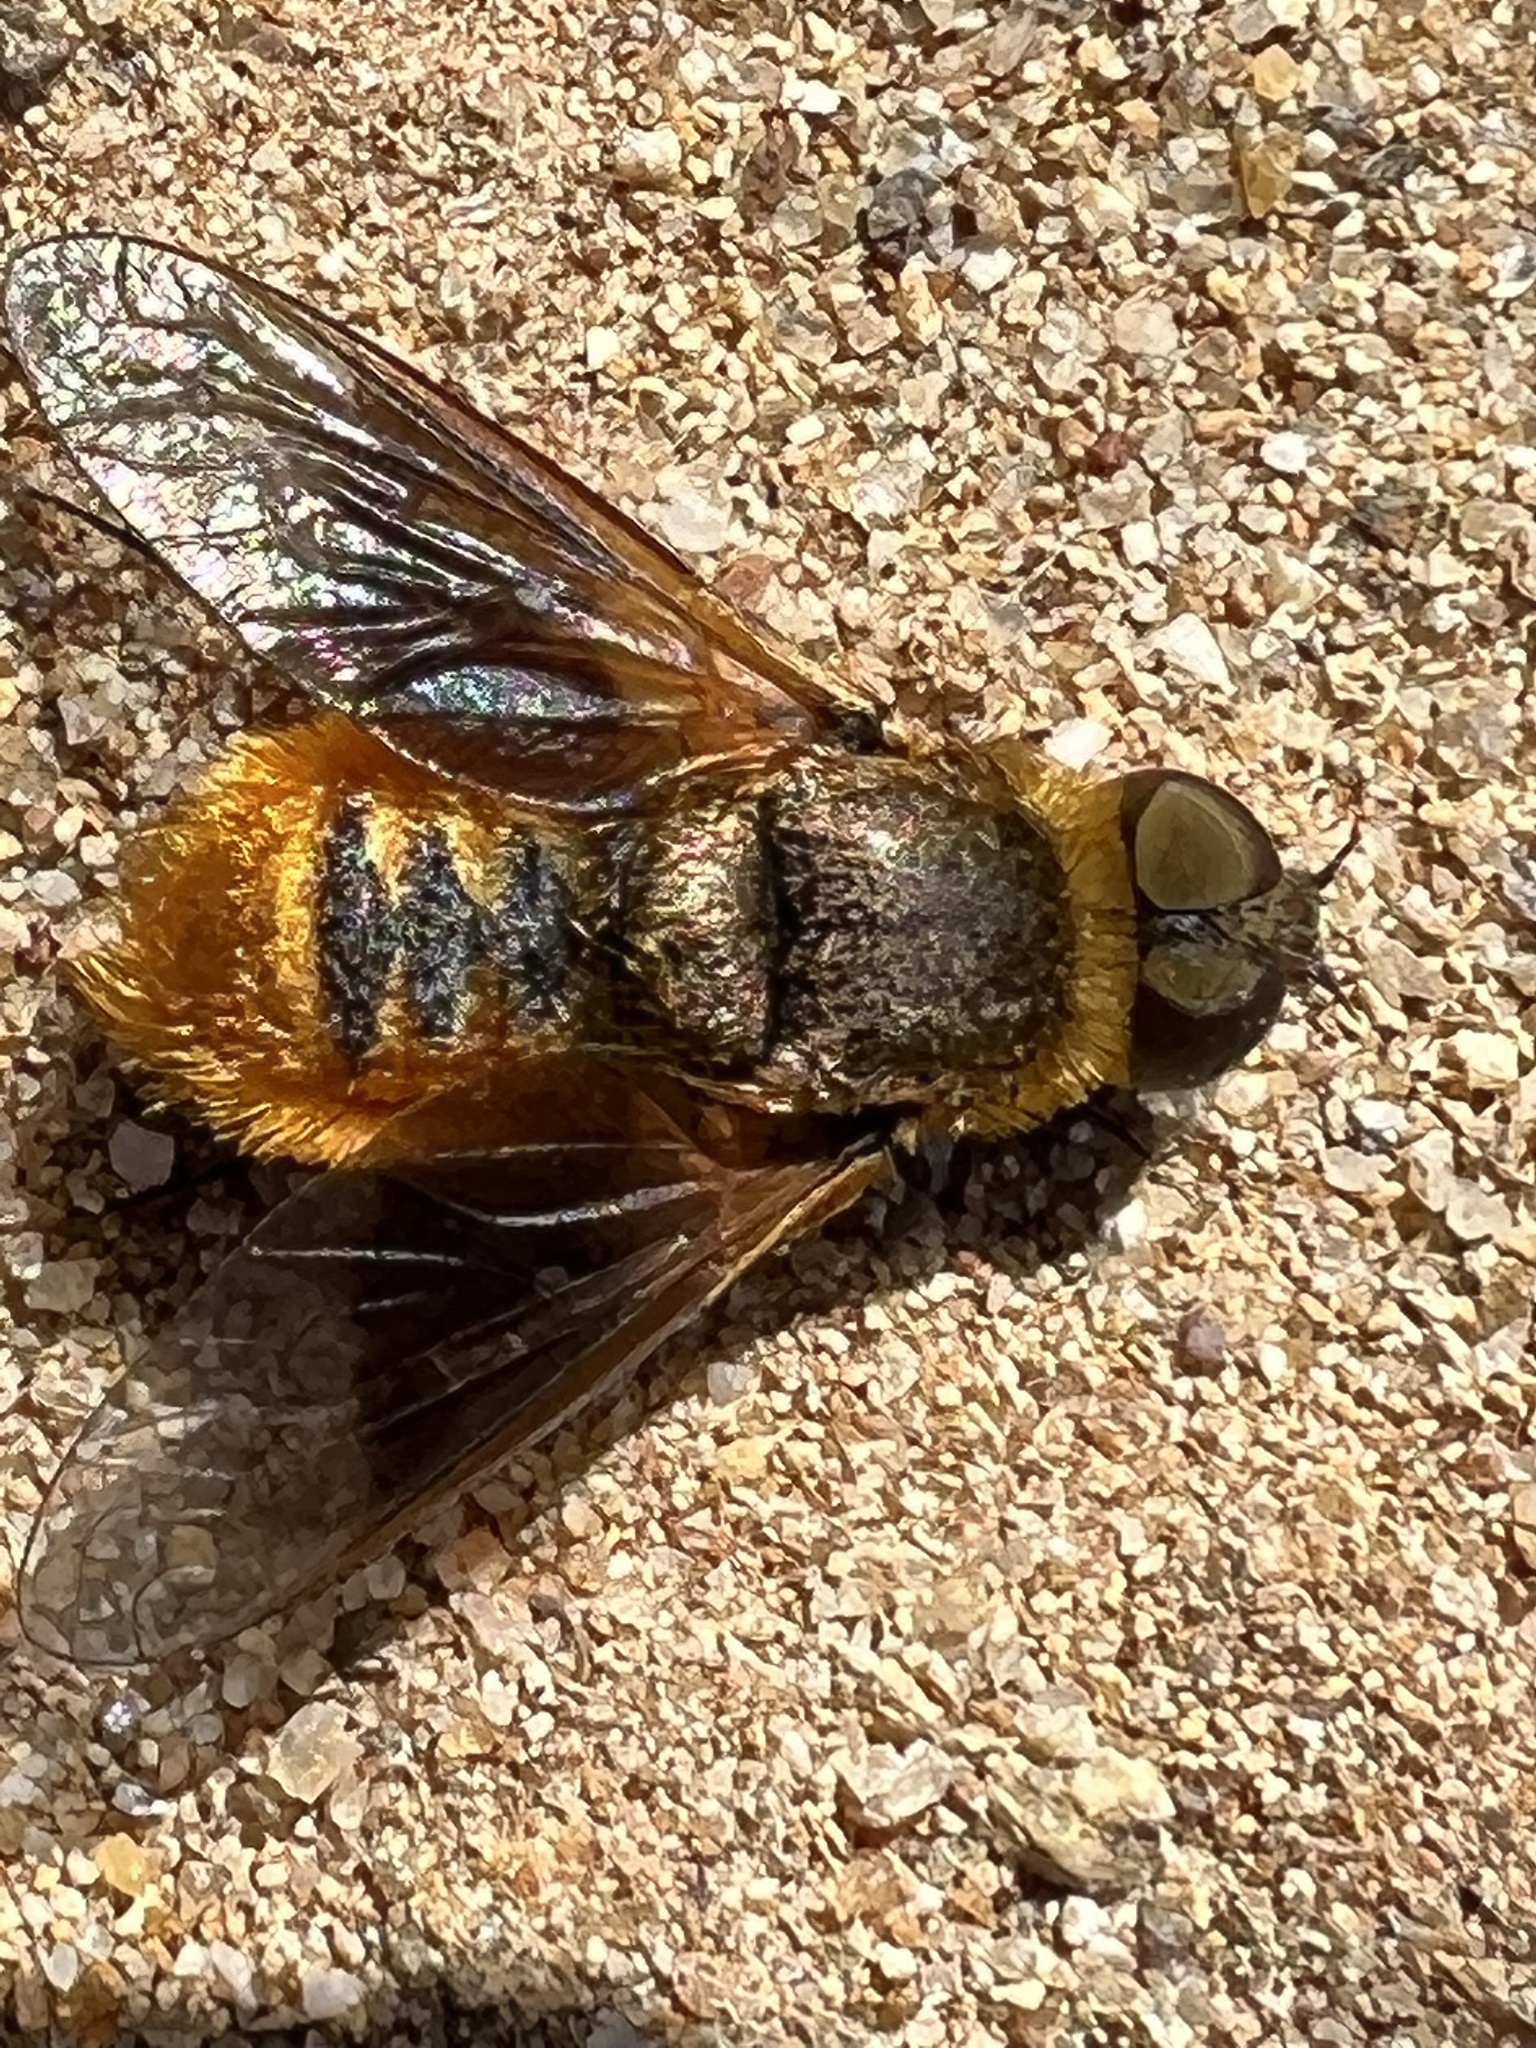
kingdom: Animalia
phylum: Arthropoda
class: Insecta
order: Diptera
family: Bombyliidae
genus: Chrysanthrax
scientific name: Chrysanthrax arenosus
